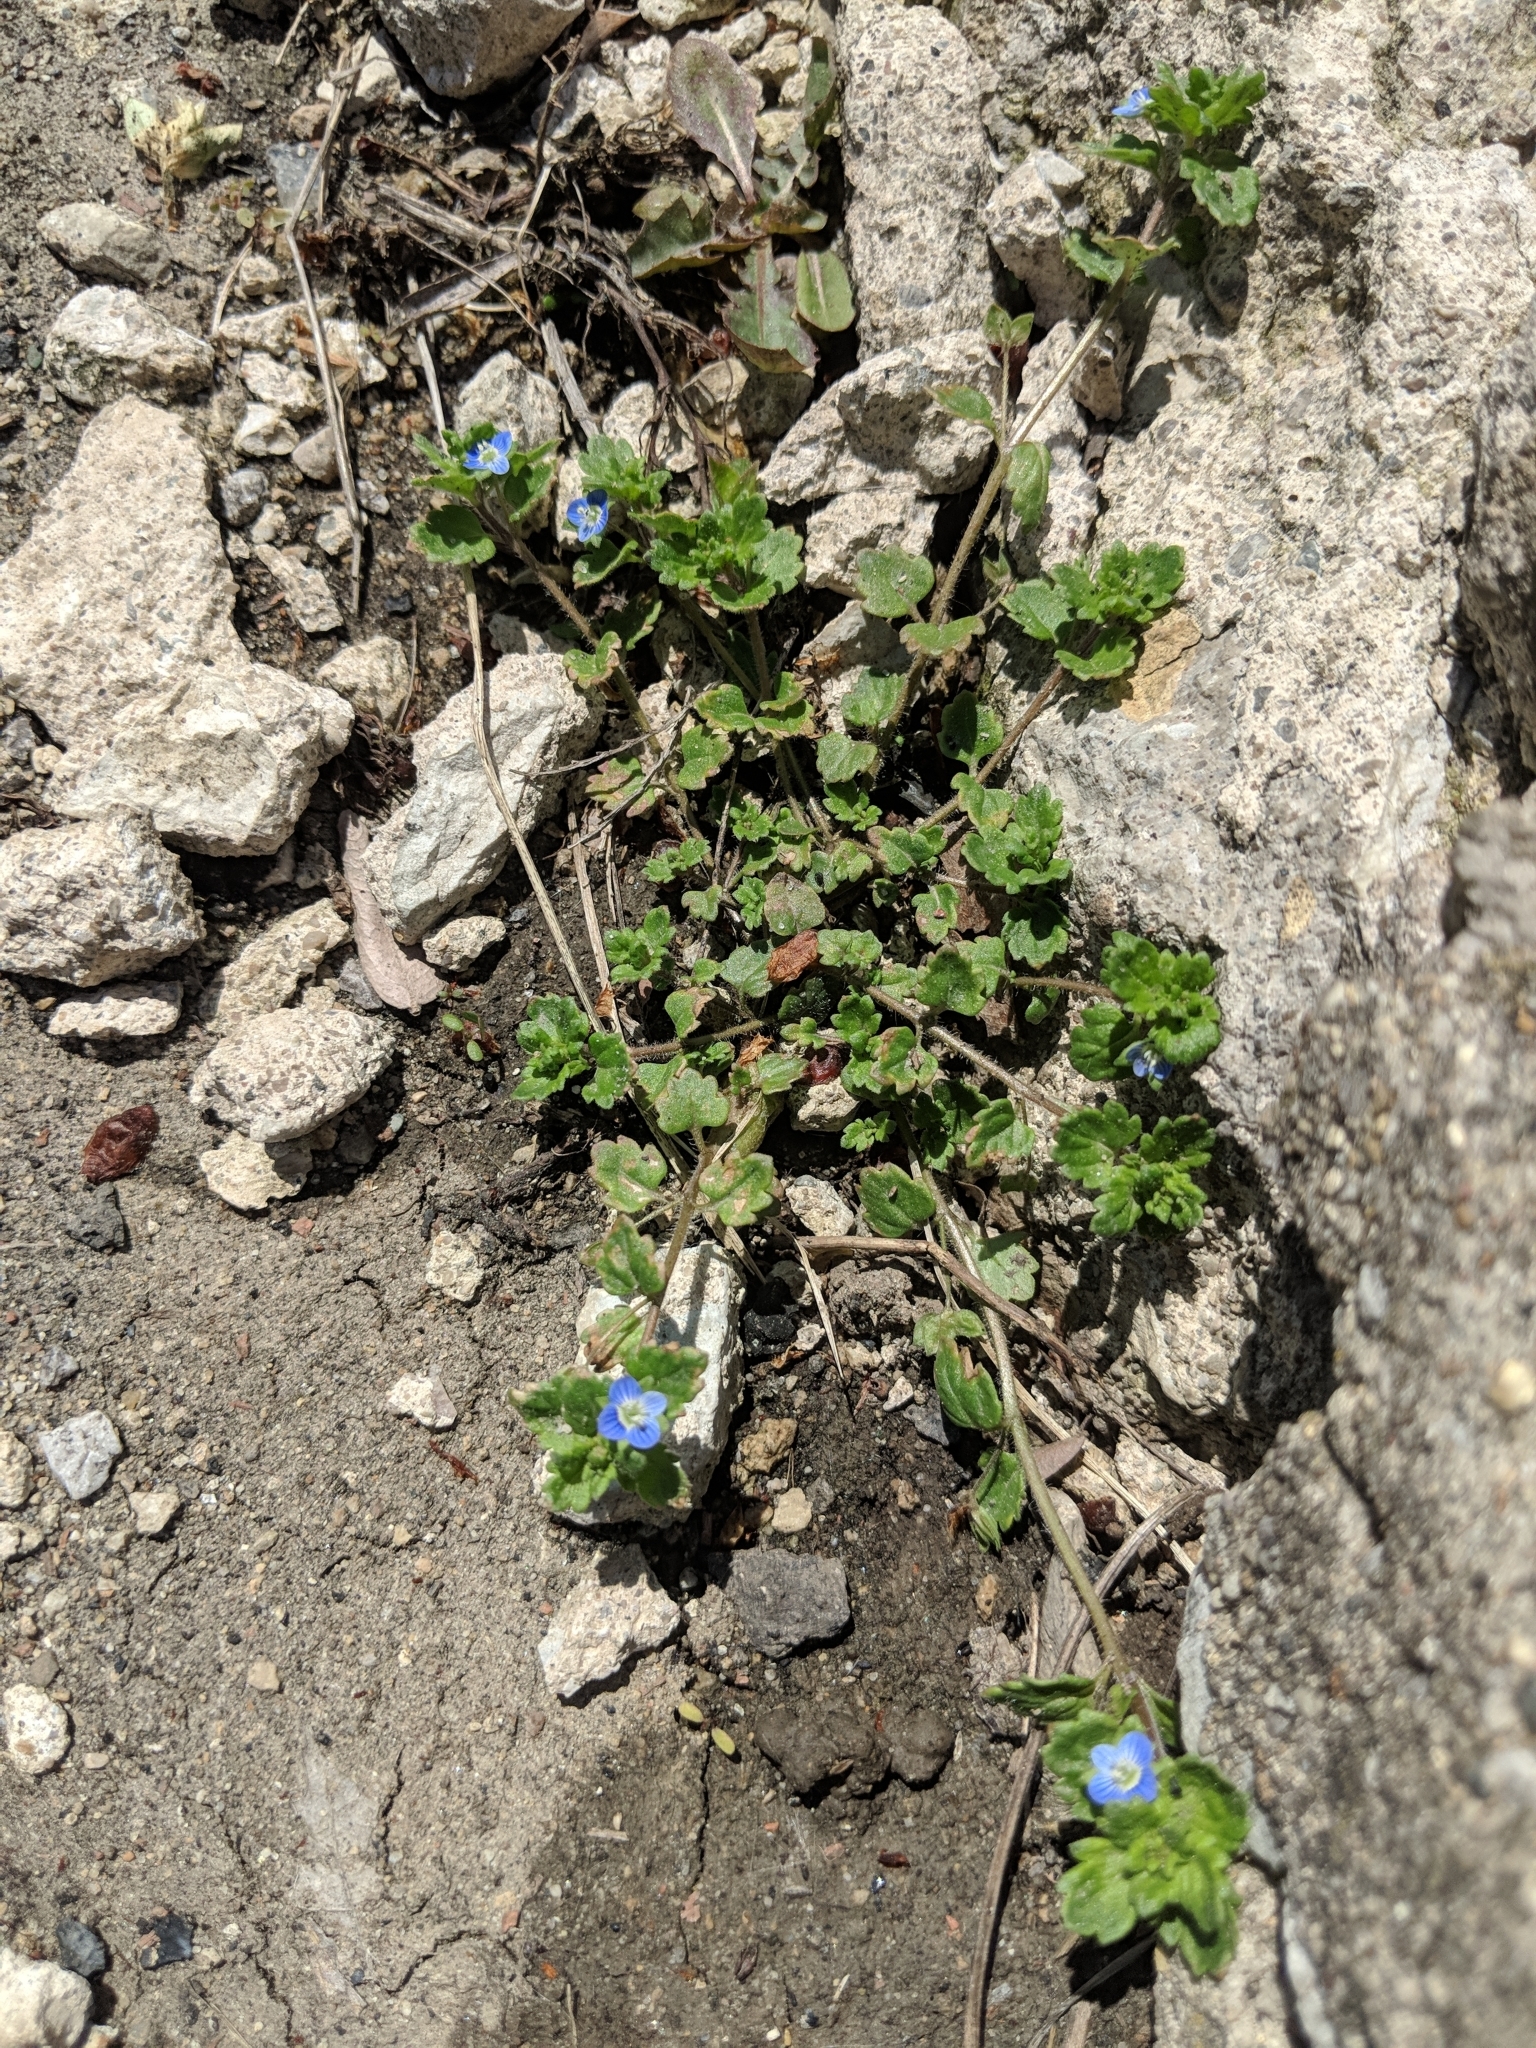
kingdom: Plantae
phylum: Tracheophyta
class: Magnoliopsida
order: Lamiales
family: Plantaginaceae
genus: Veronica
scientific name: Veronica polita
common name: Grey field-speedwell
